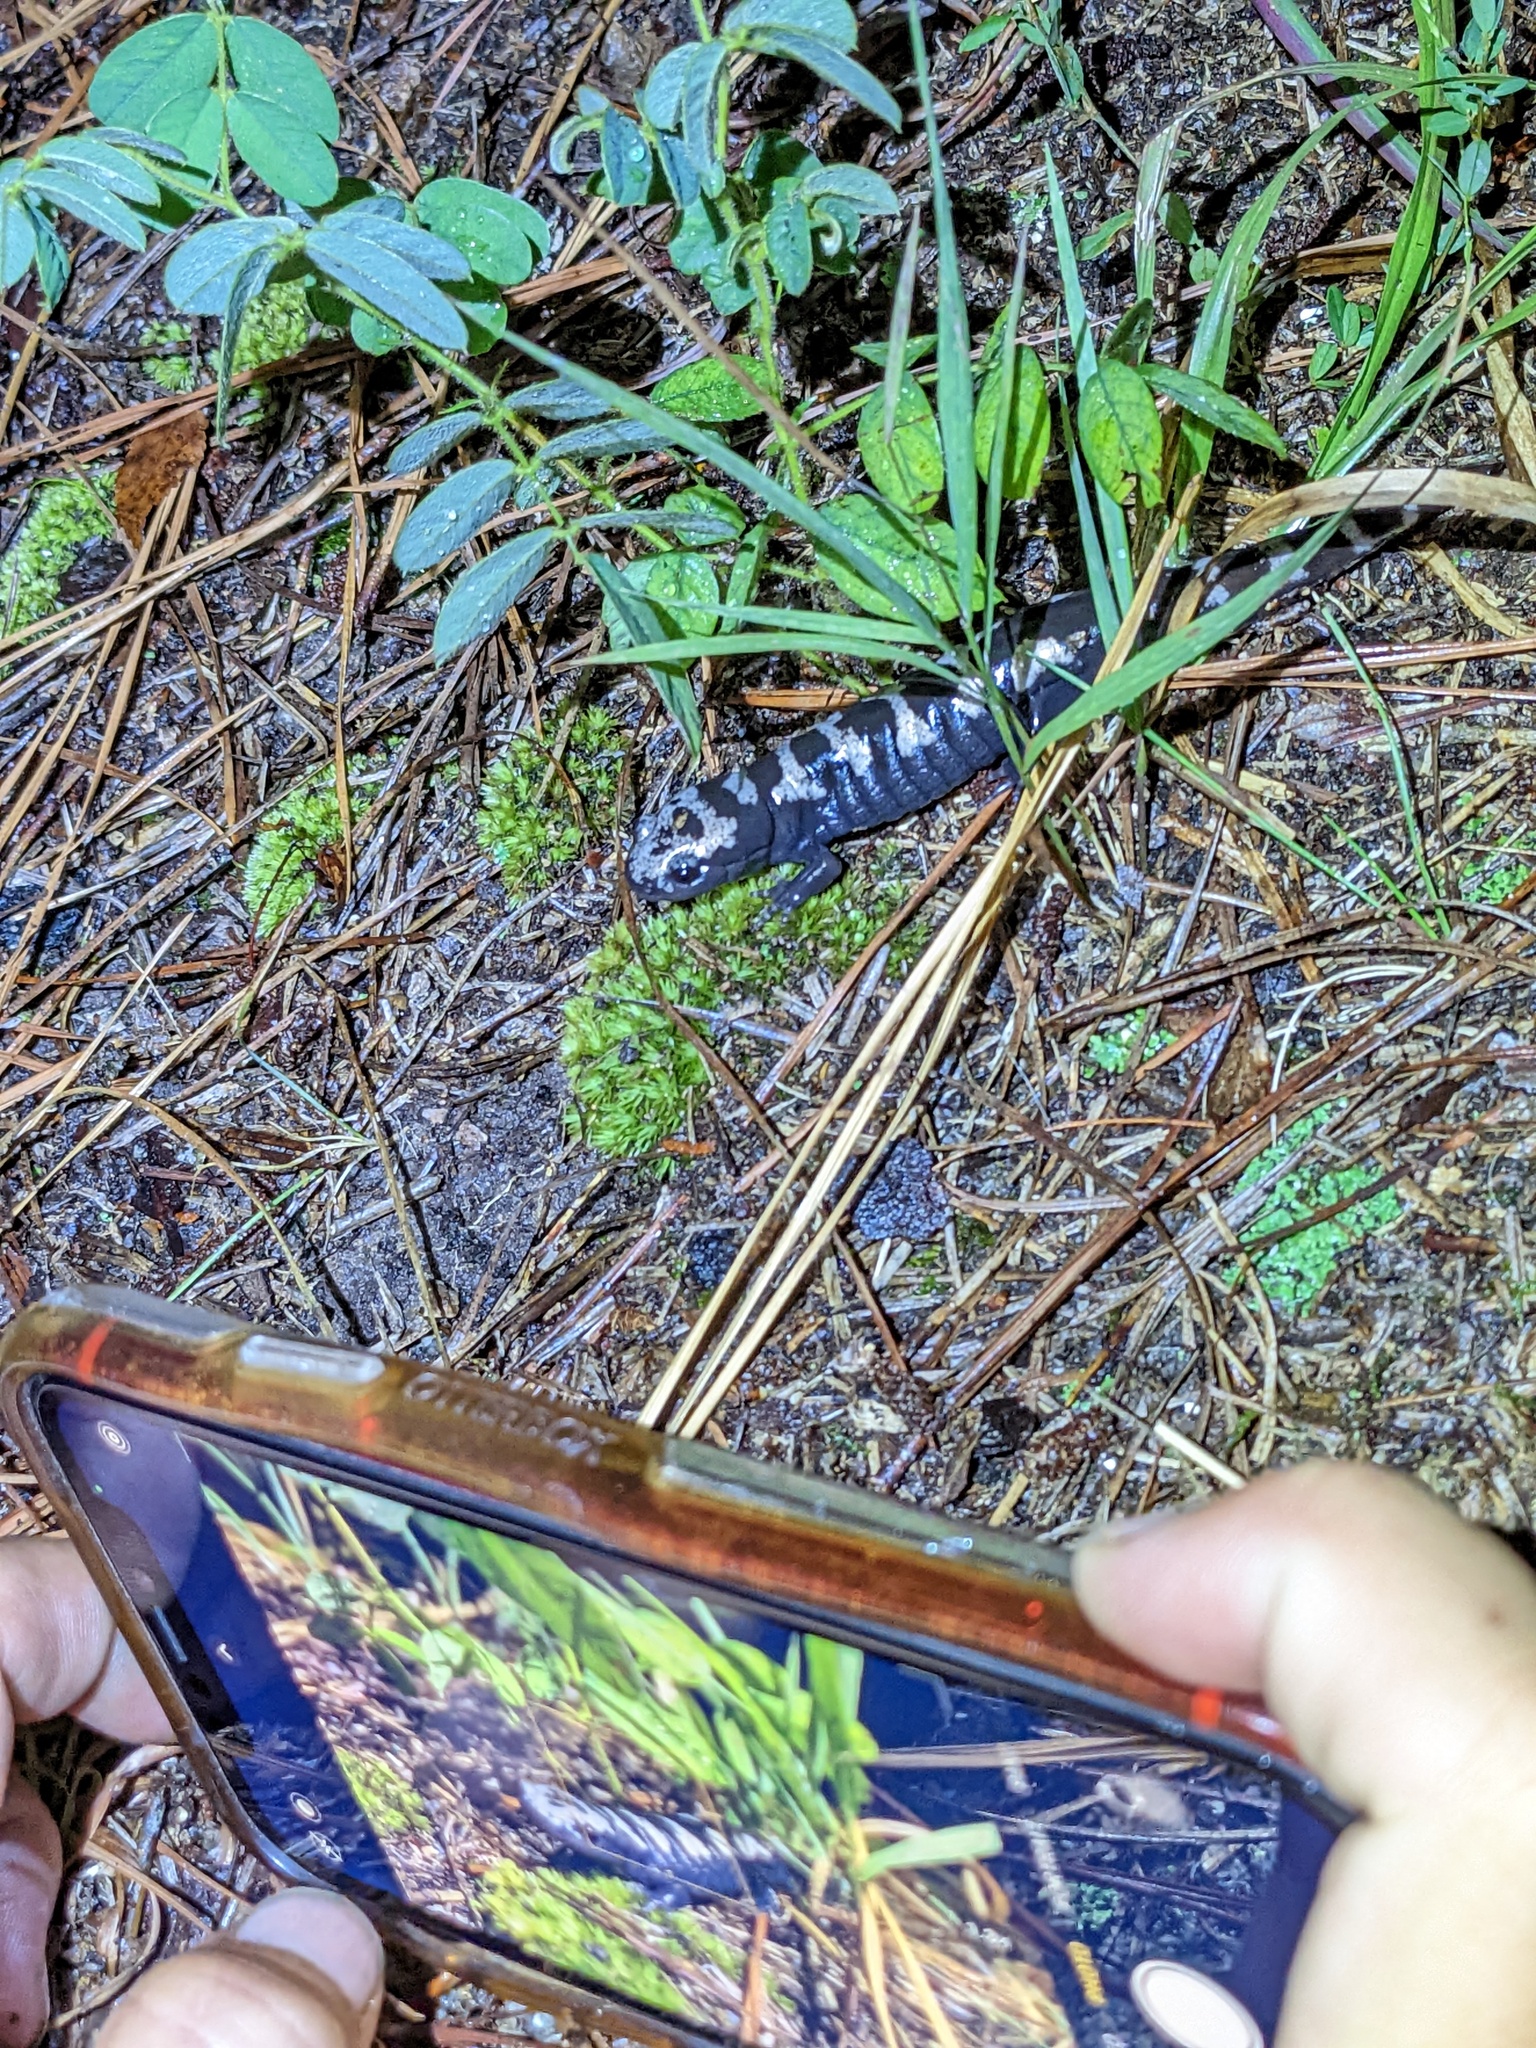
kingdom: Animalia
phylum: Chordata
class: Amphibia
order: Caudata
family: Ambystomatidae
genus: Ambystoma
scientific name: Ambystoma opacum
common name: Marbled salamander
